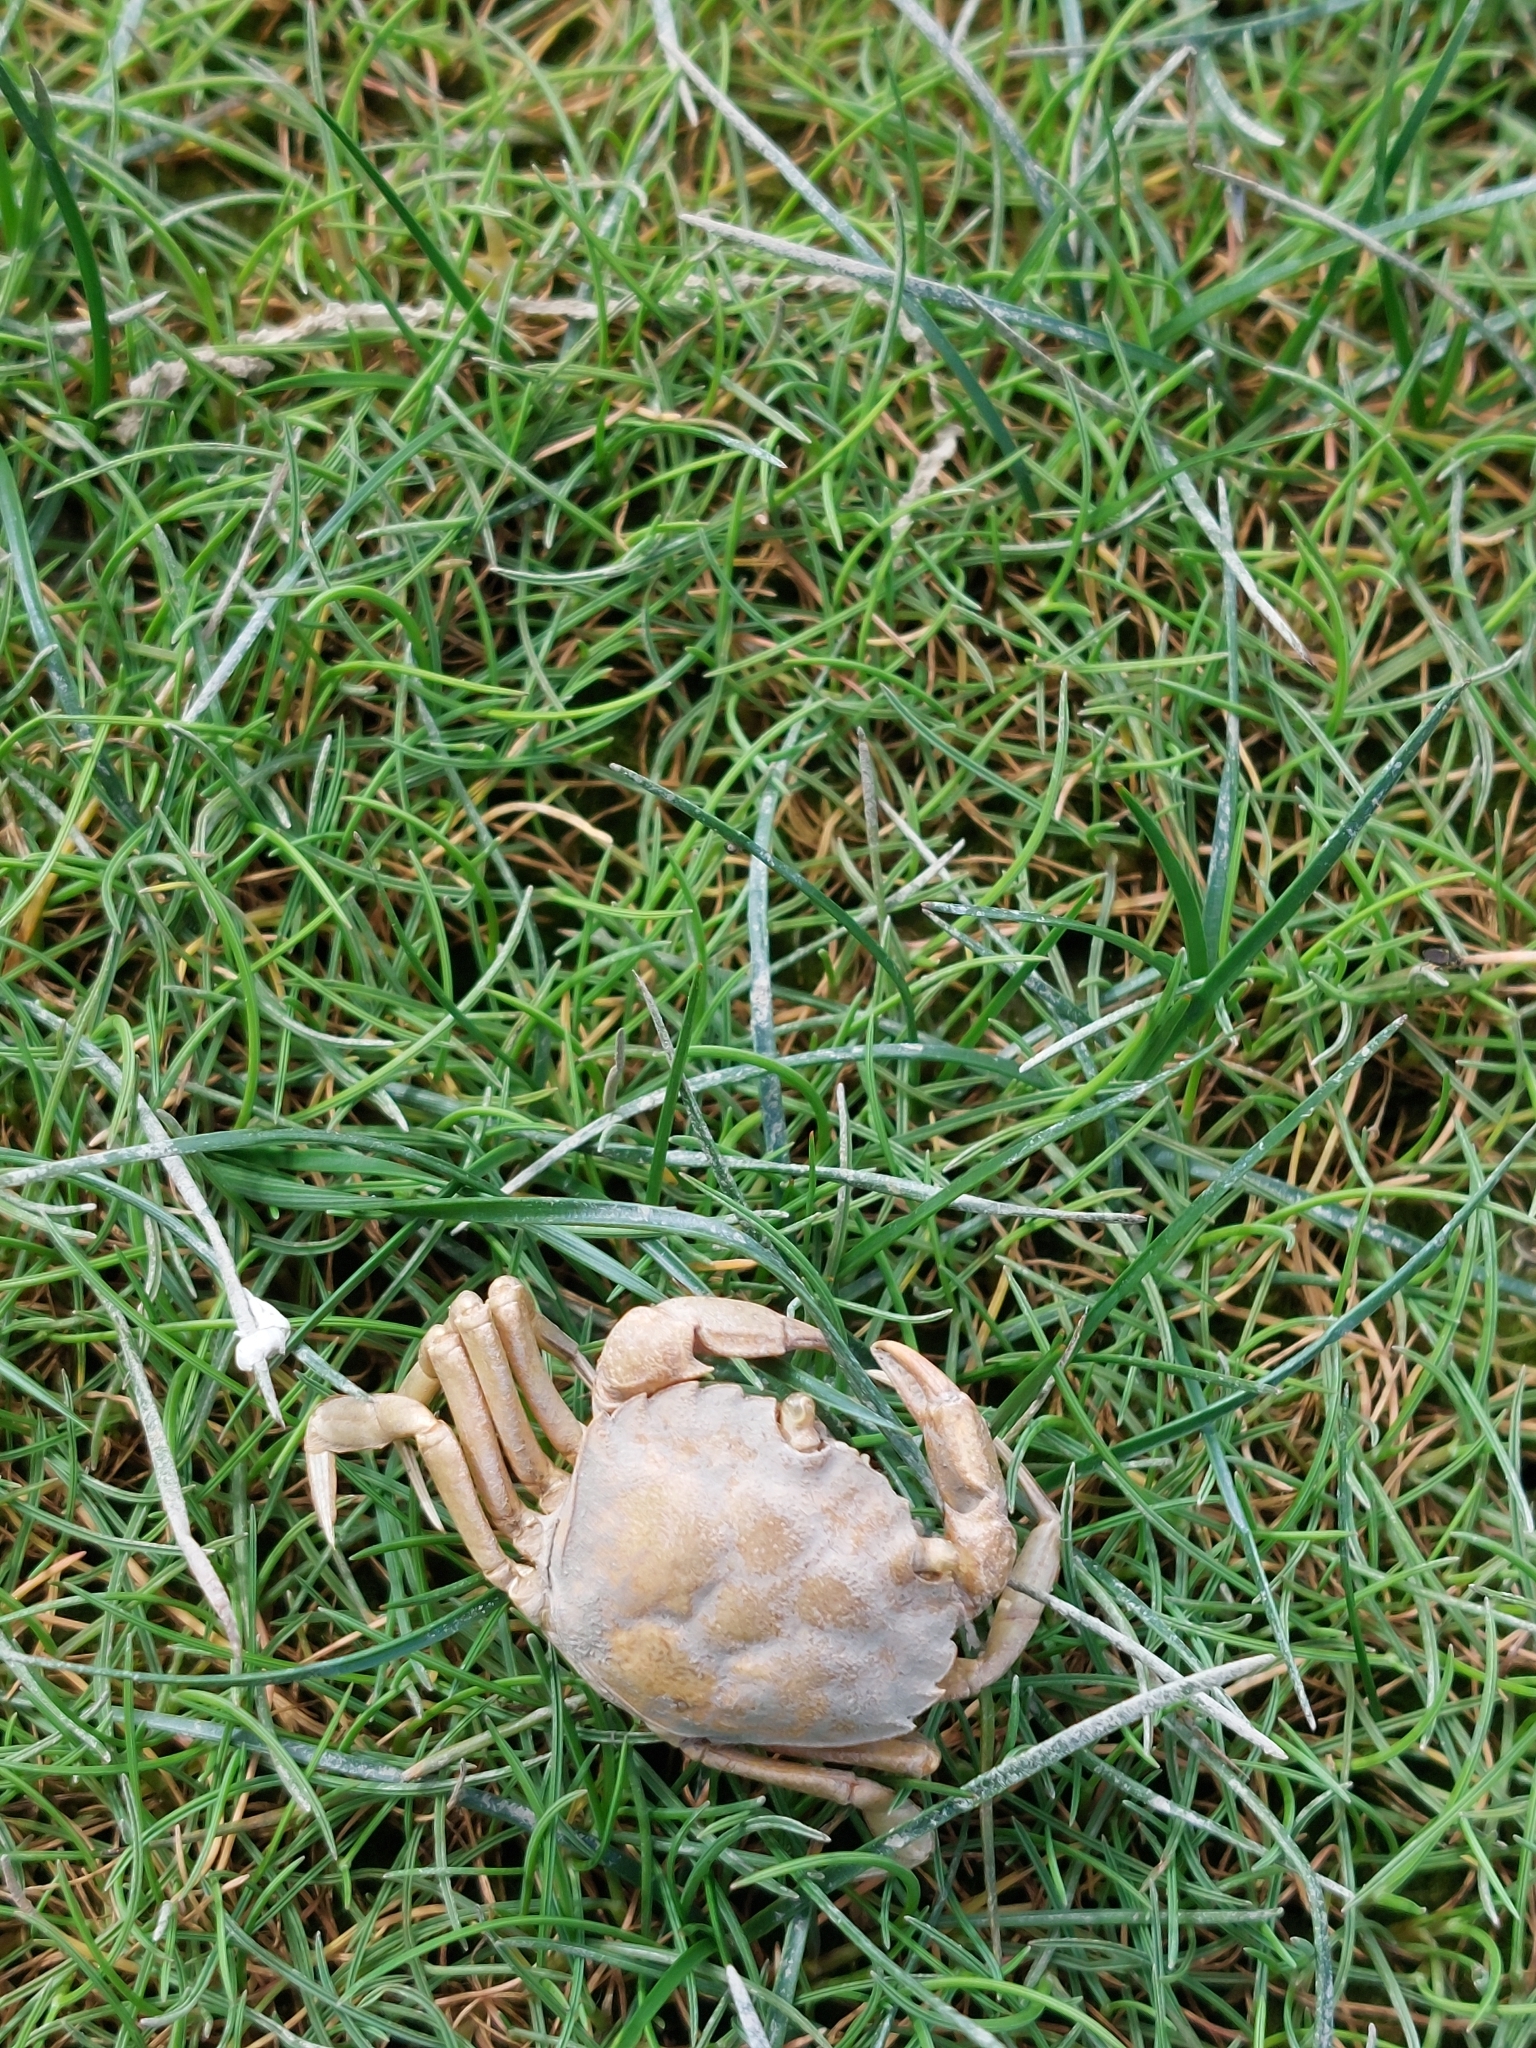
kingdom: Animalia
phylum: Arthropoda
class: Malacostraca
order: Decapoda
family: Carcinidae
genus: Carcinus
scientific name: Carcinus maenas
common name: European green crab
